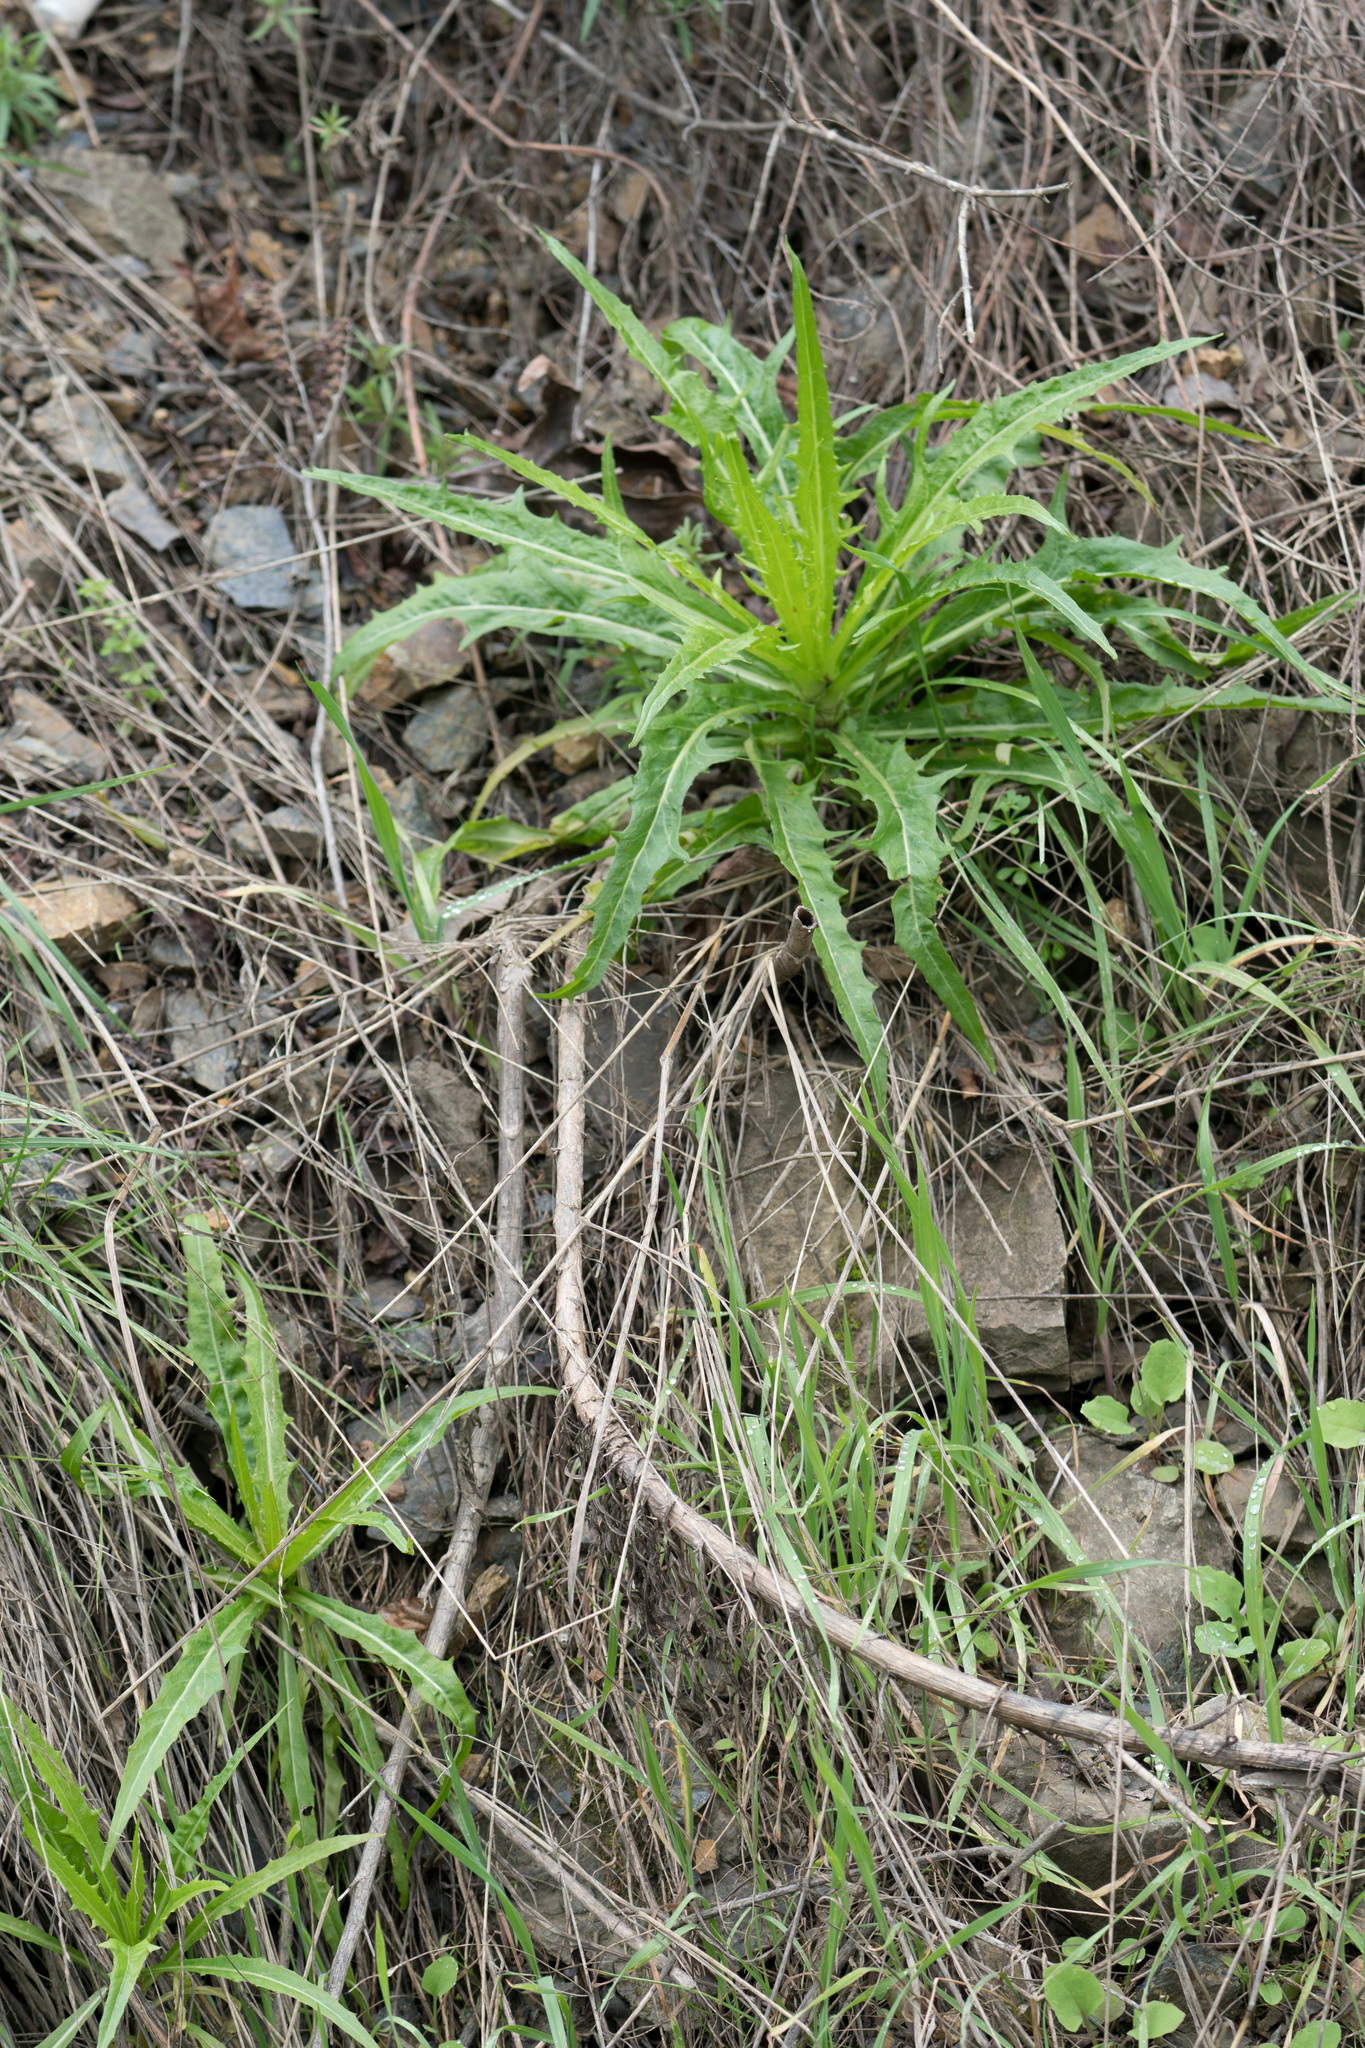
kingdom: Plantae
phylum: Tracheophyta
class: Magnoliopsida
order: Asterales
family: Asteraceae
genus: Malacothrix
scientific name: Malacothrix saxatilis
